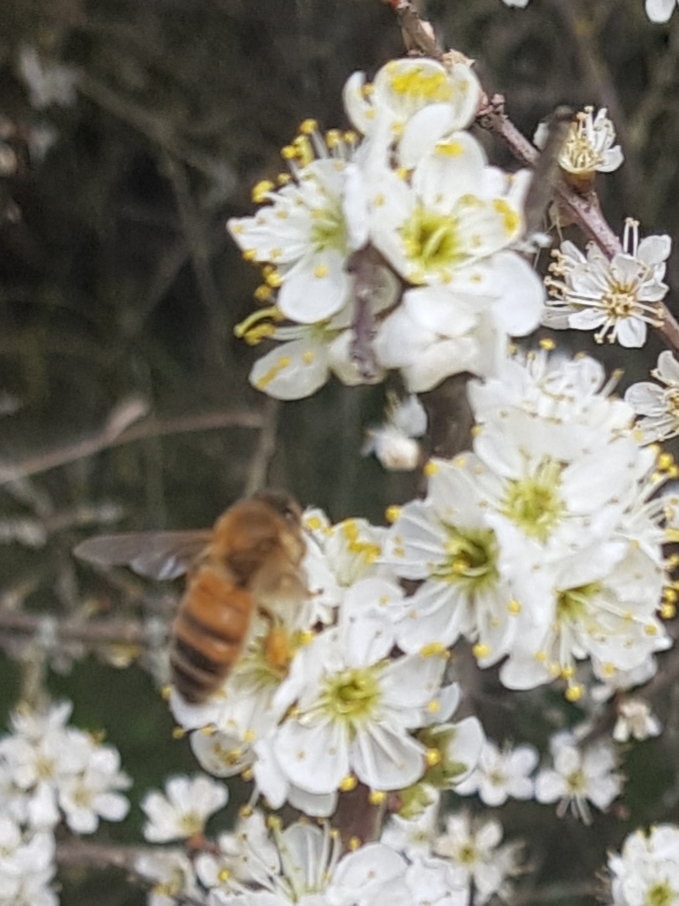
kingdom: Animalia
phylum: Arthropoda
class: Insecta
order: Hymenoptera
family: Apidae
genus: Apis
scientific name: Apis mellifera
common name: Honey bee
